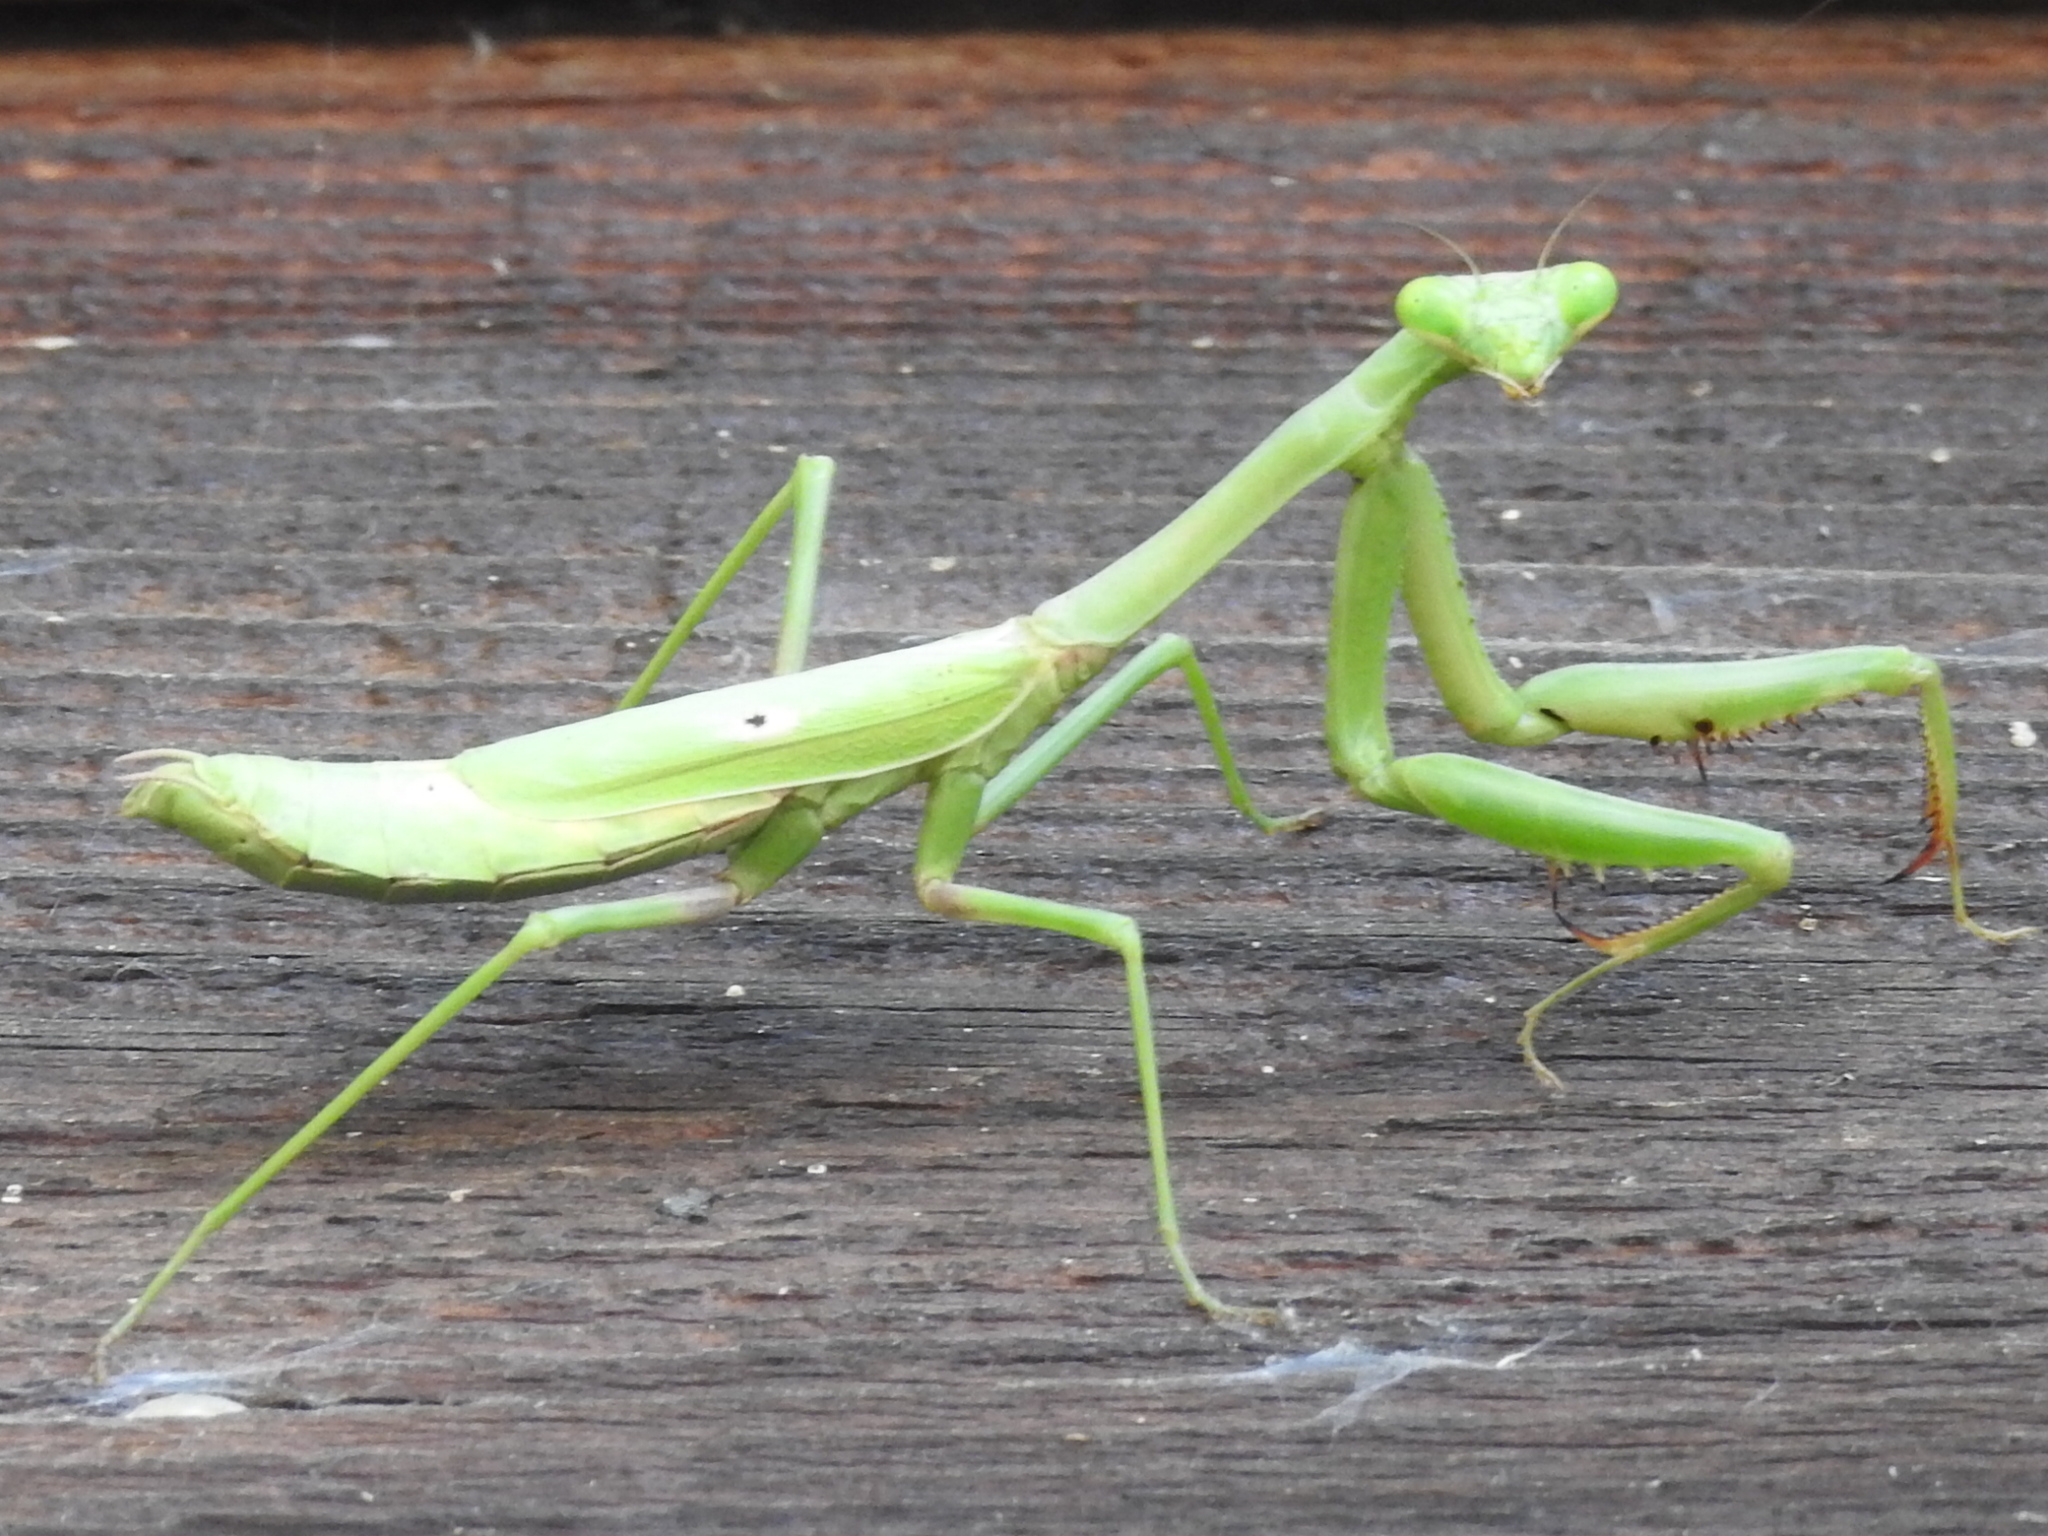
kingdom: Animalia
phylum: Arthropoda
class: Insecta
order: Mantodea
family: Mantidae
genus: Stagmomantis
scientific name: Stagmomantis carolina
